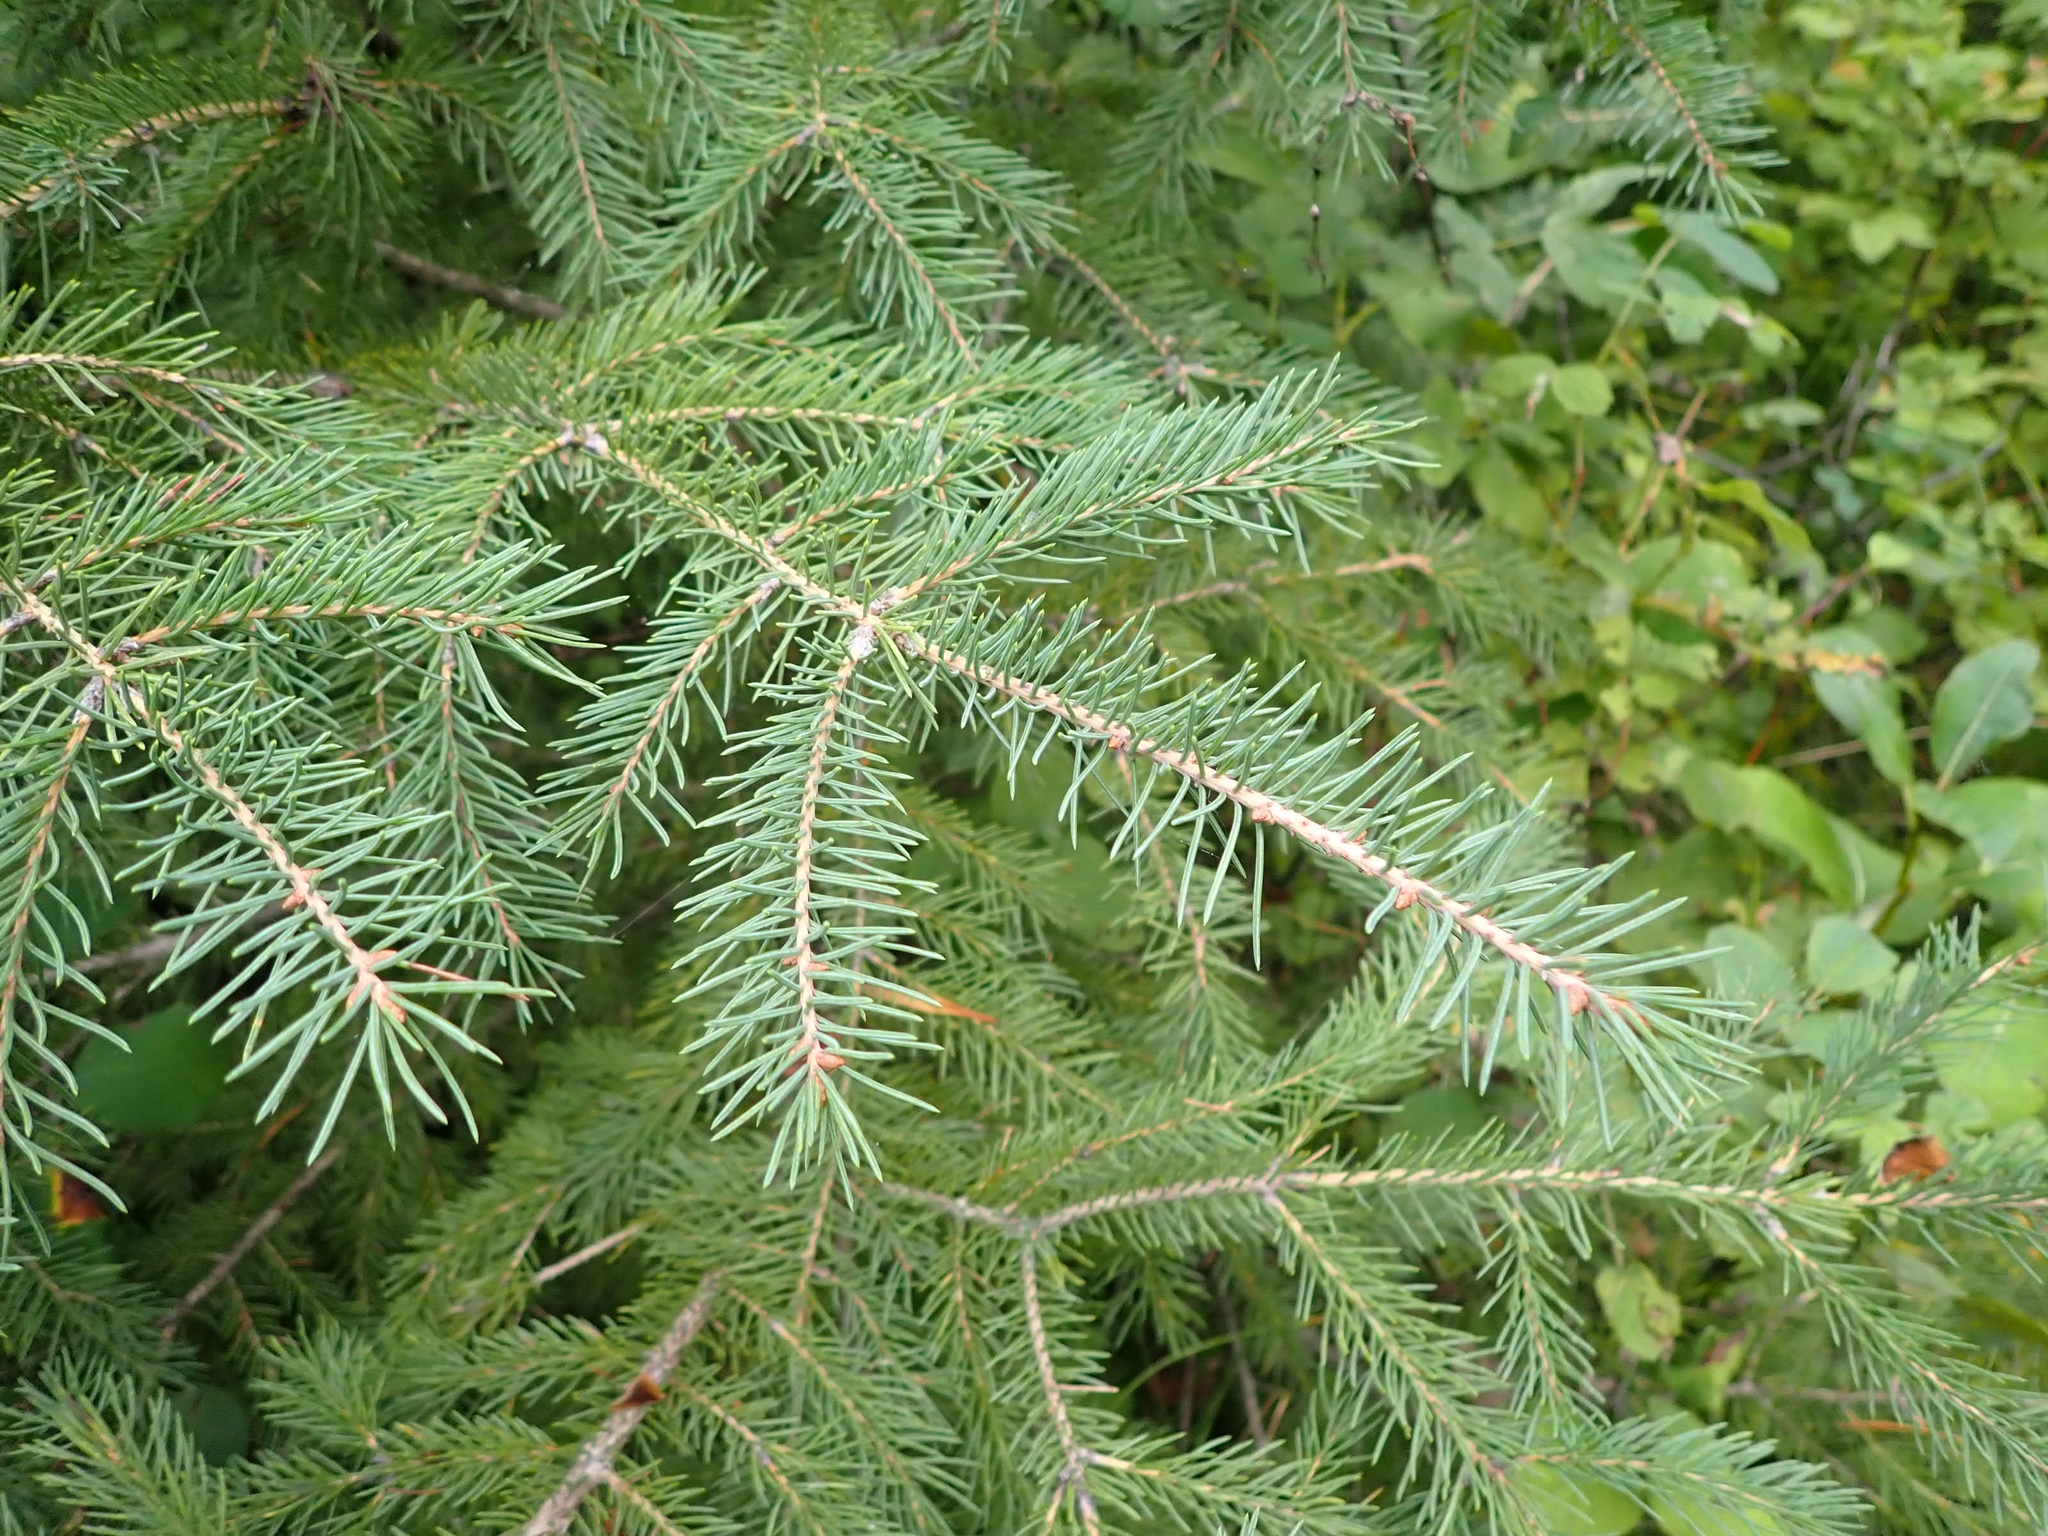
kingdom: Plantae
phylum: Tracheophyta
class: Pinopsida
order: Pinales
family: Pinaceae
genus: Picea
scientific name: Picea glauca
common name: White spruce
